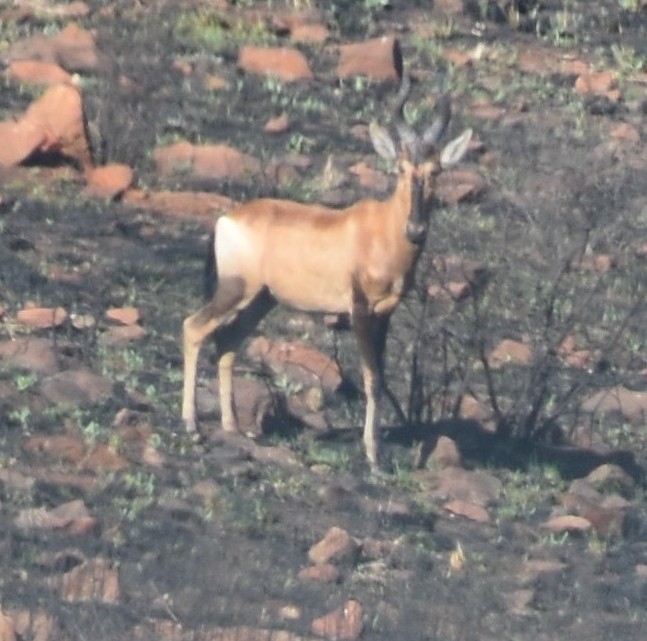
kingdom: Animalia
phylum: Chordata
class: Mammalia
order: Artiodactyla
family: Bovidae
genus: Alcelaphus
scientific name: Alcelaphus caama
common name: Red hartebeest
